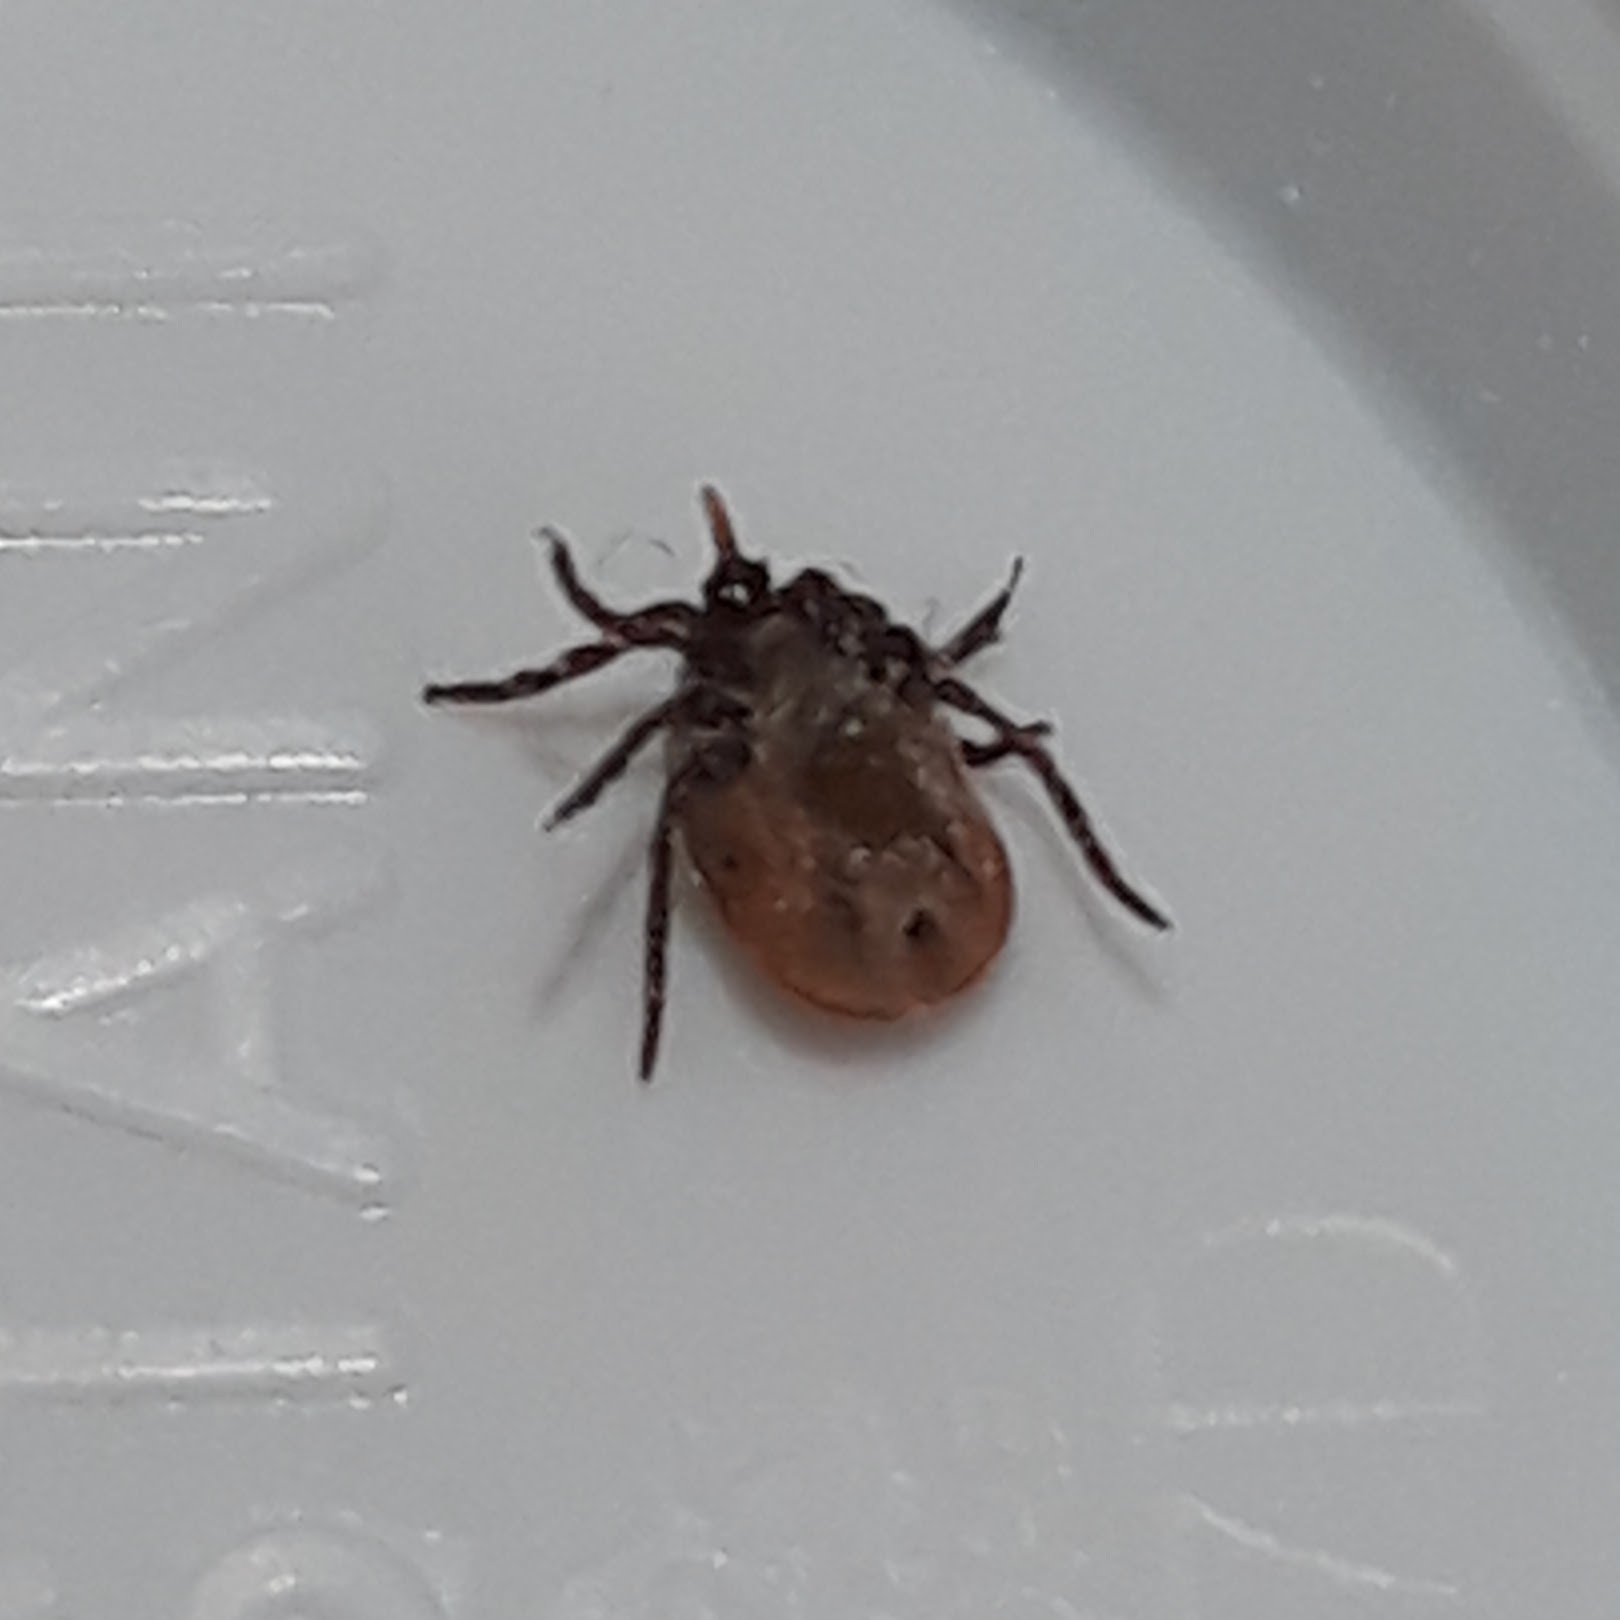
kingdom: Animalia
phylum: Arthropoda
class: Arachnida
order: Ixodida
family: Ixodidae
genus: Ixodes
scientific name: Ixodes scapularis
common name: Black legged tick
